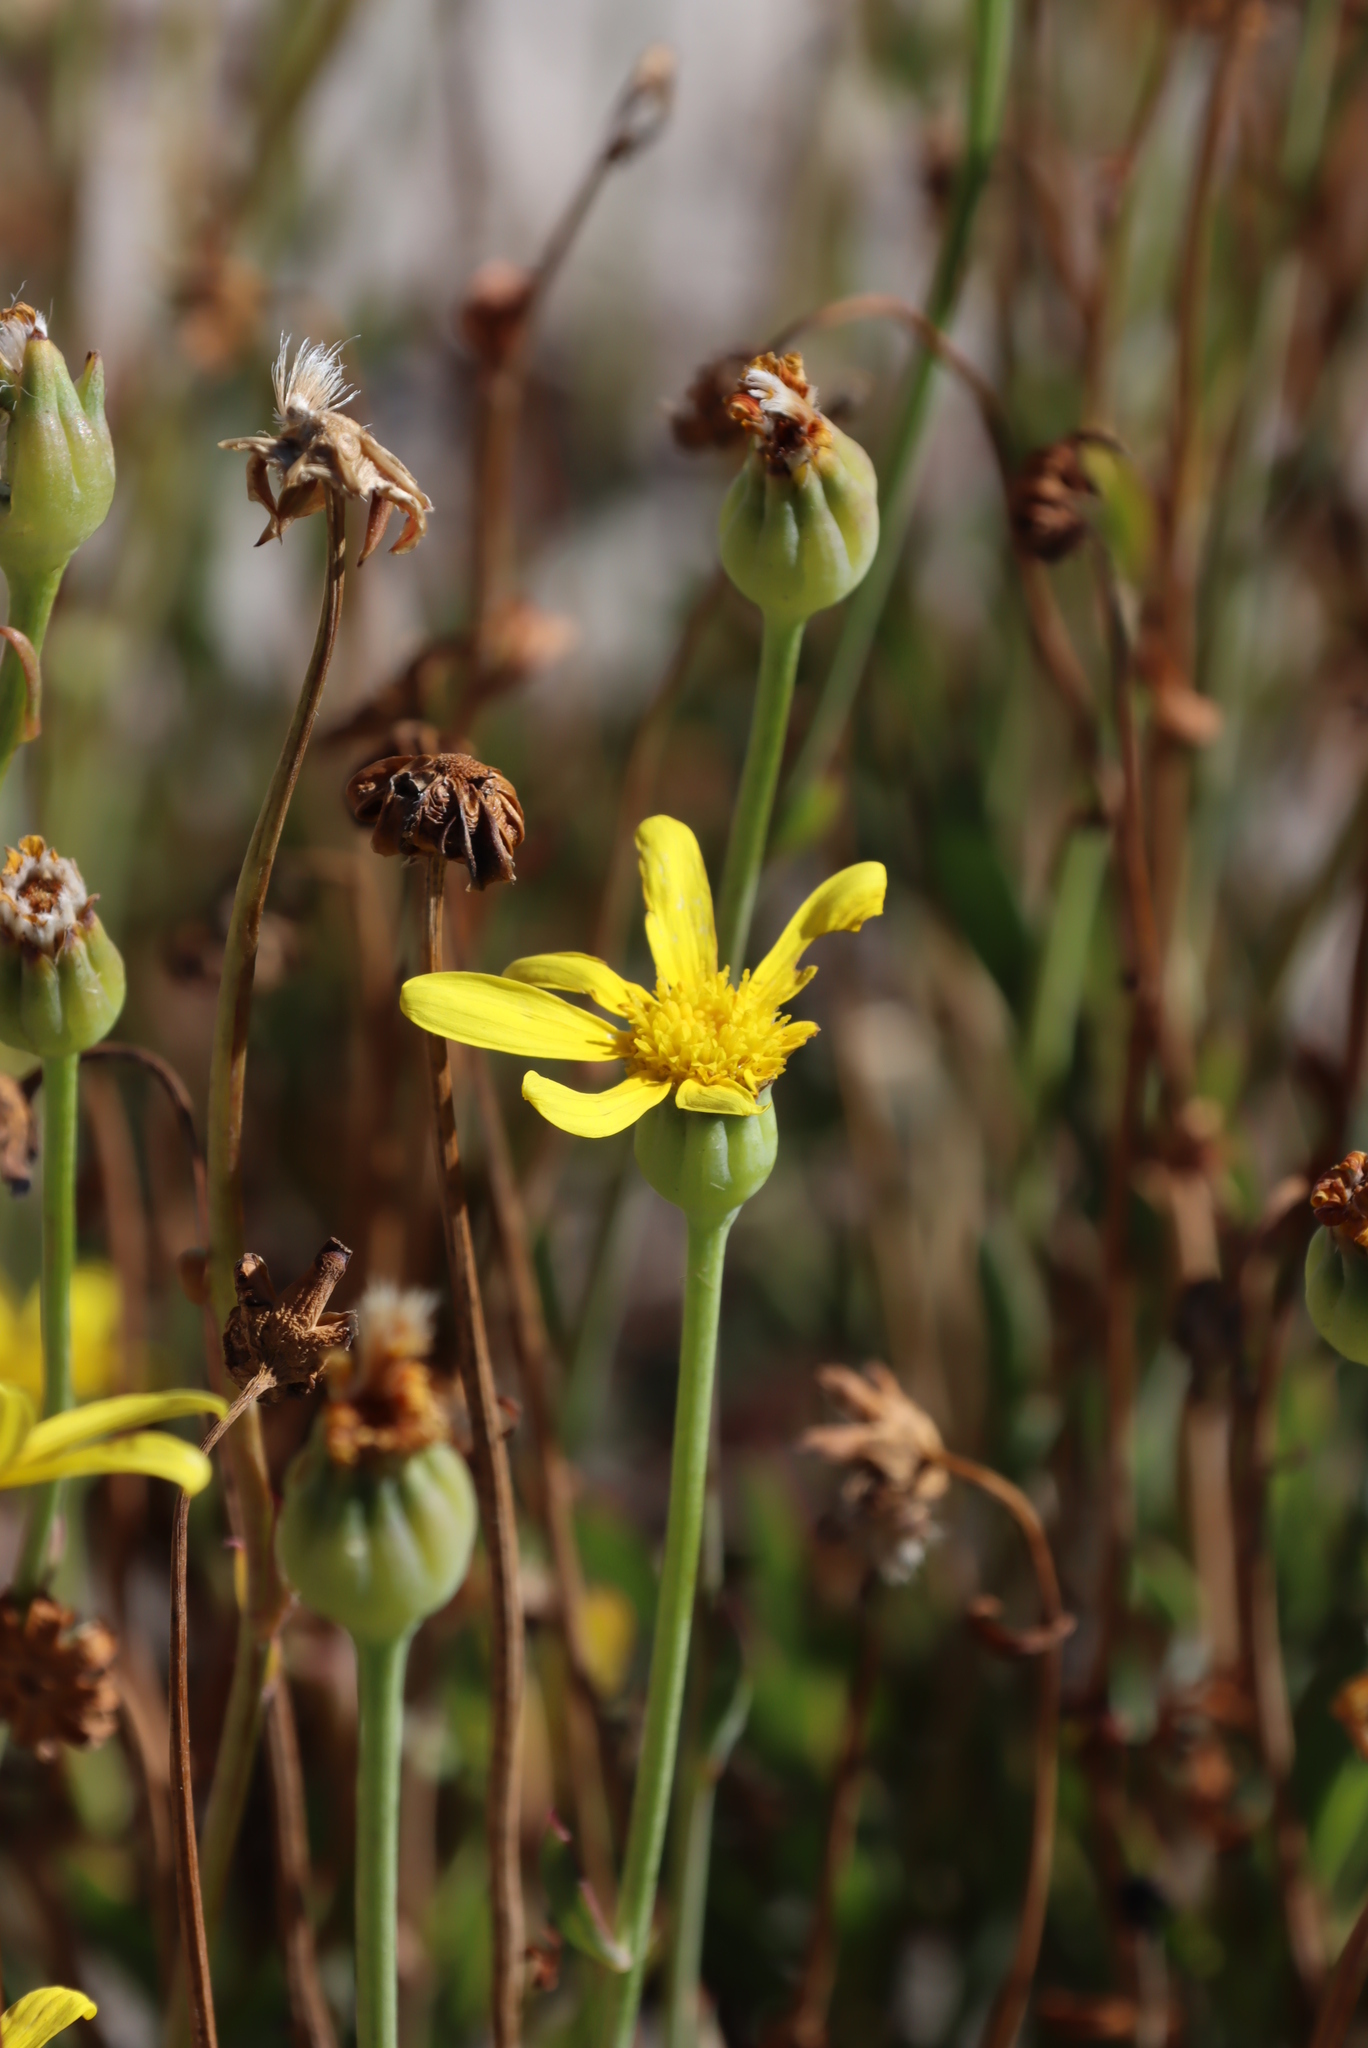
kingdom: Plantae
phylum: Tracheophyta
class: Magnoliopsida
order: Asterales
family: Asteraceae
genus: Othonna
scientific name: Othonna coronopifolia
